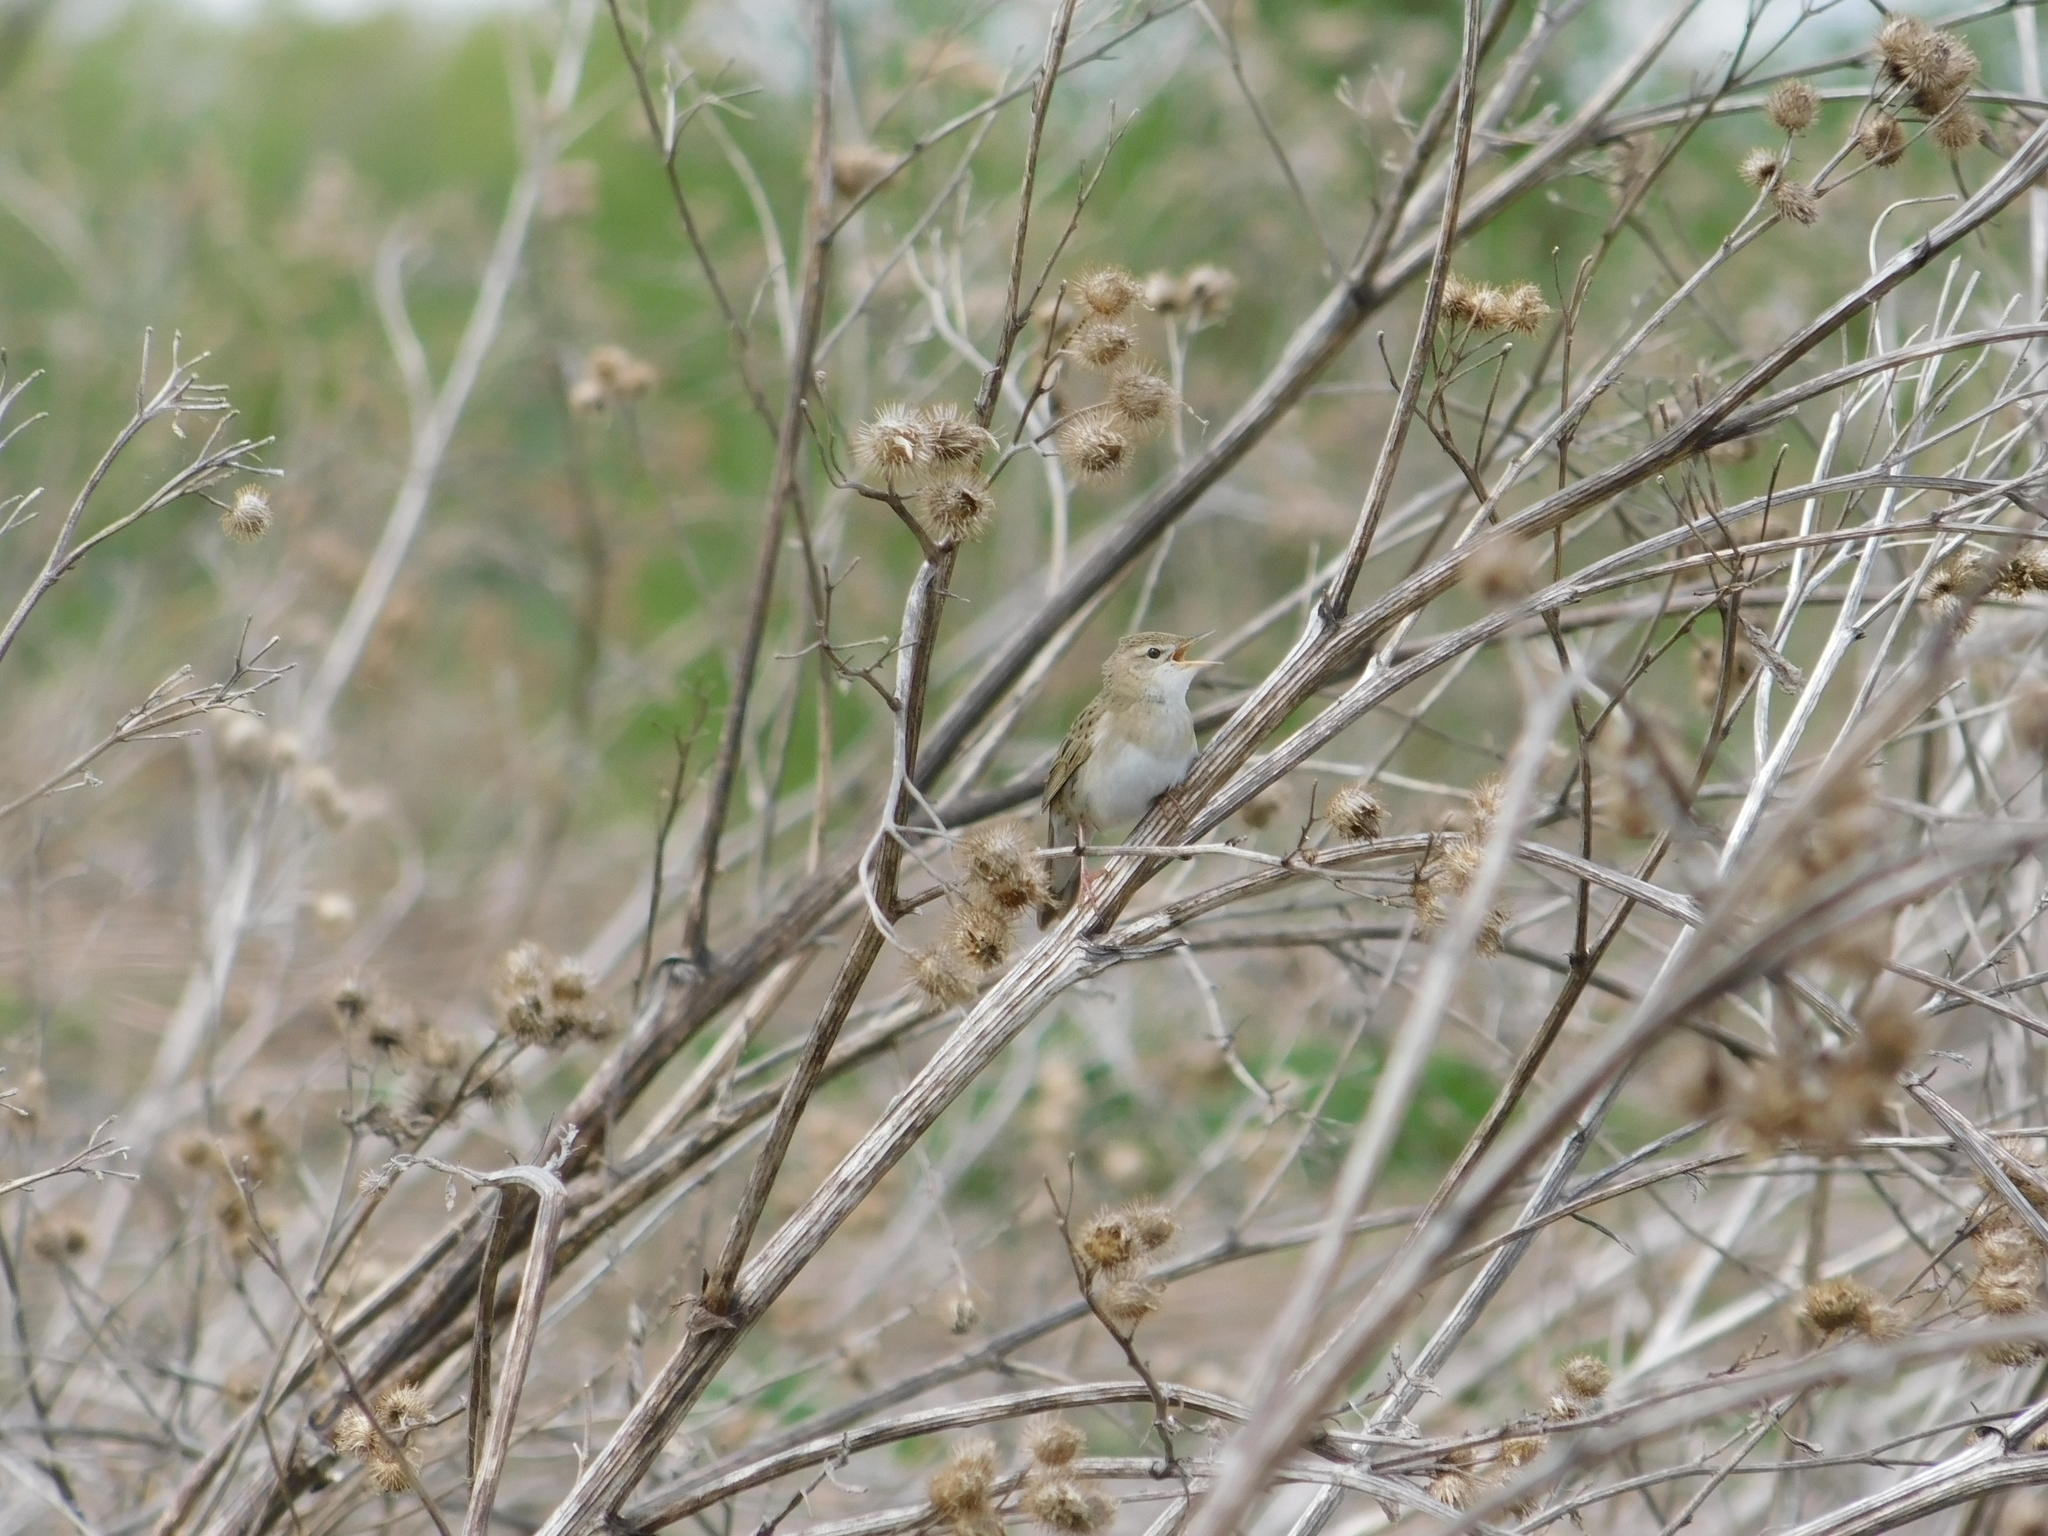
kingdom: Animalia
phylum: Chordata
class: Aves
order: Passeriformes
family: Locustellidae
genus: Locustella
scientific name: Locustella naevia
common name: Common grasshopper warbler
